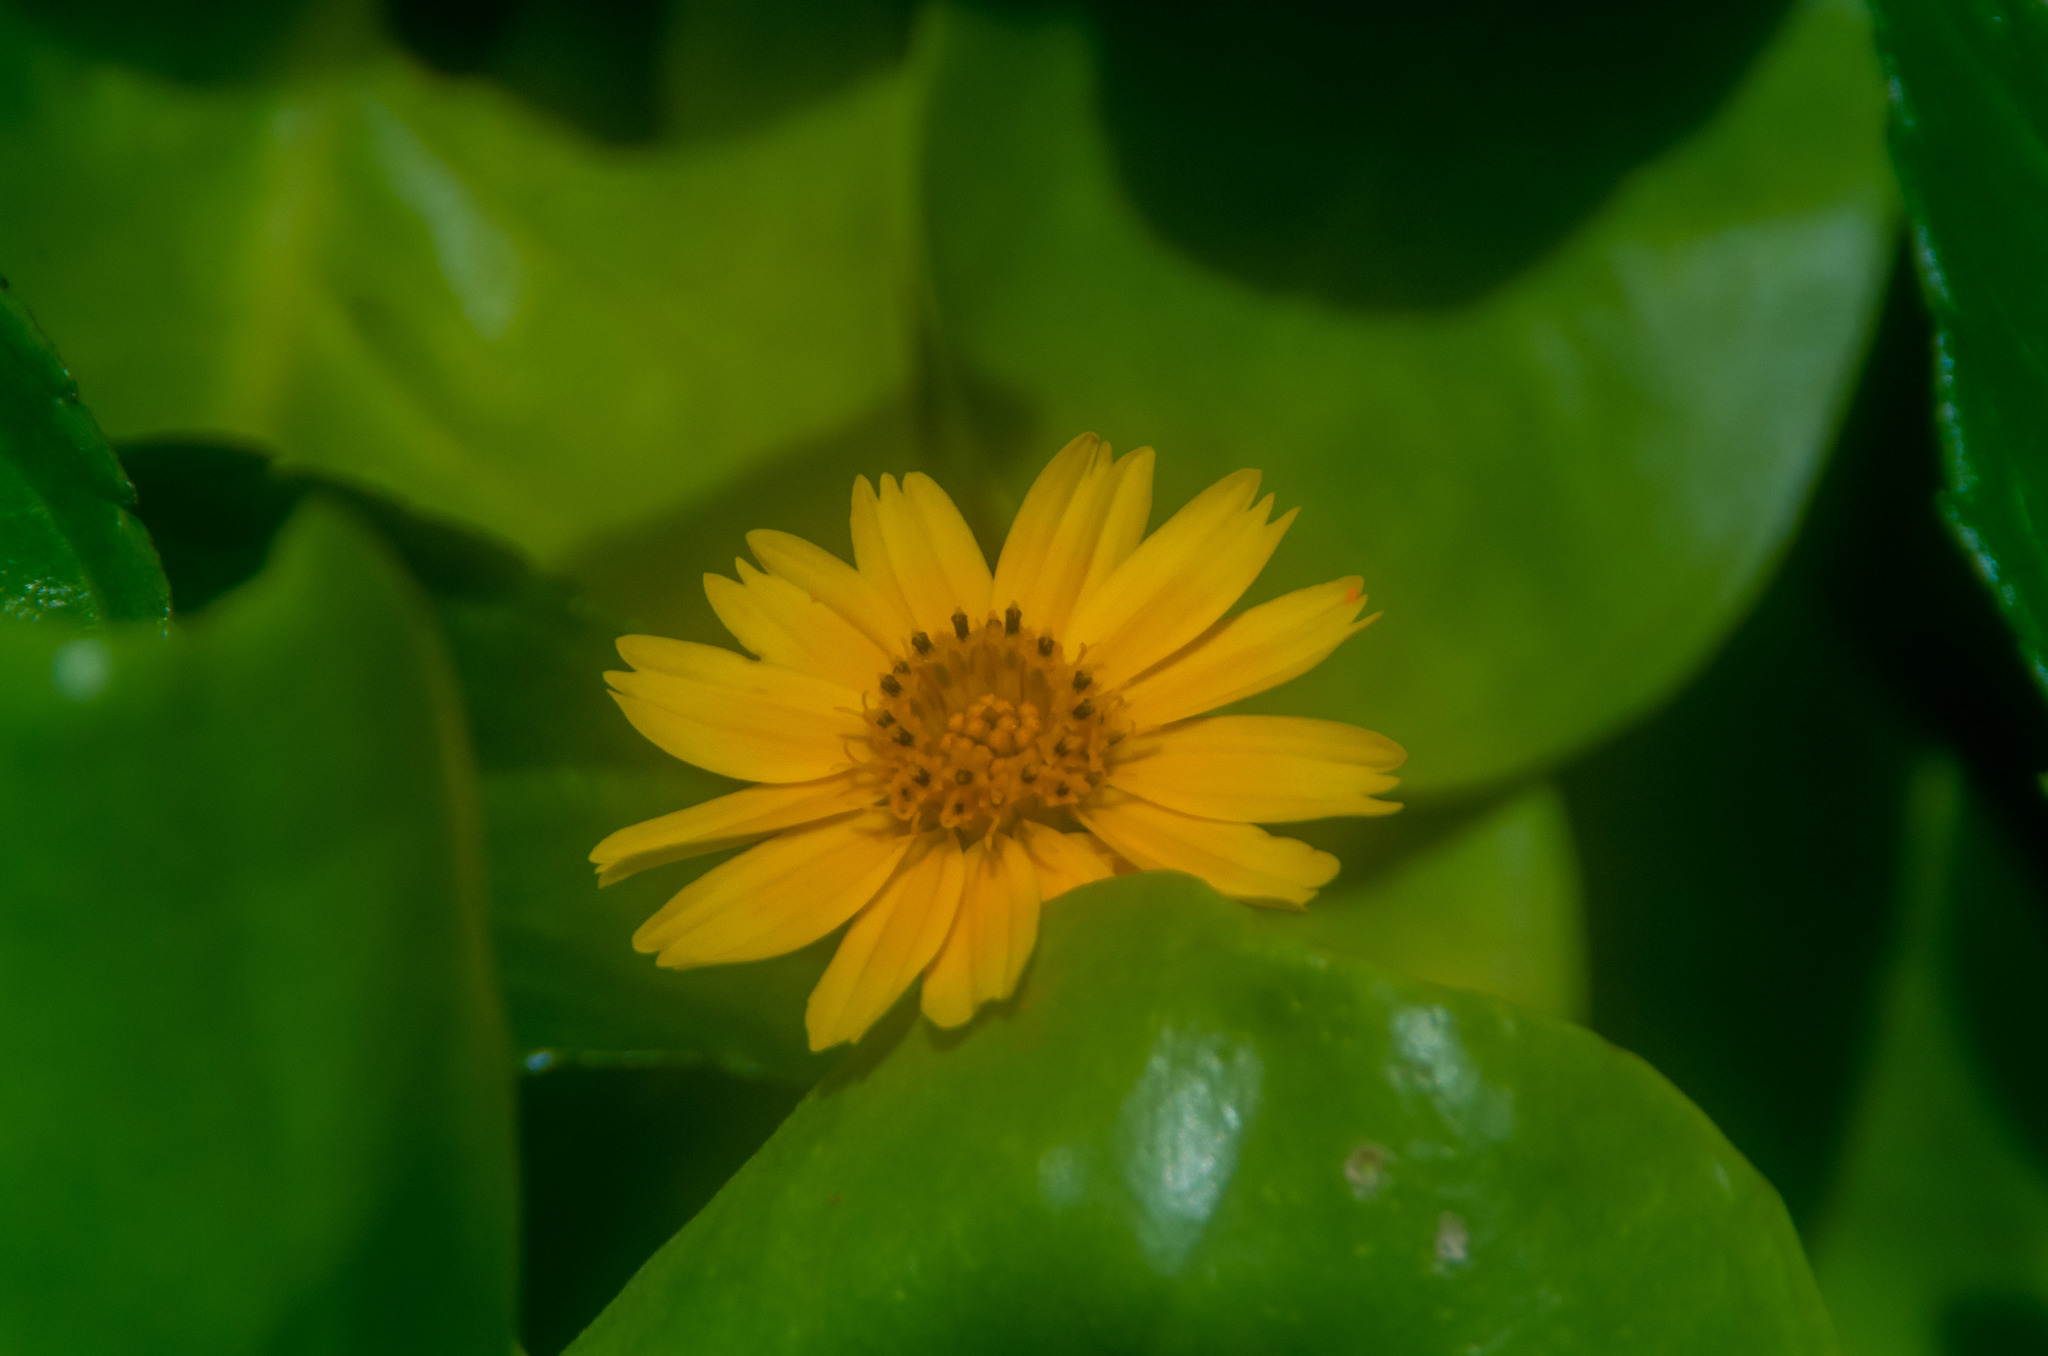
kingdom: Plantae
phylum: Tracheophyta
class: Magnoliopsida
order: Asterales
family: Asteraceae
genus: Sphagneticola
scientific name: Sphagneticola trilobata
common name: Bay biscayne creeping-oxeye
